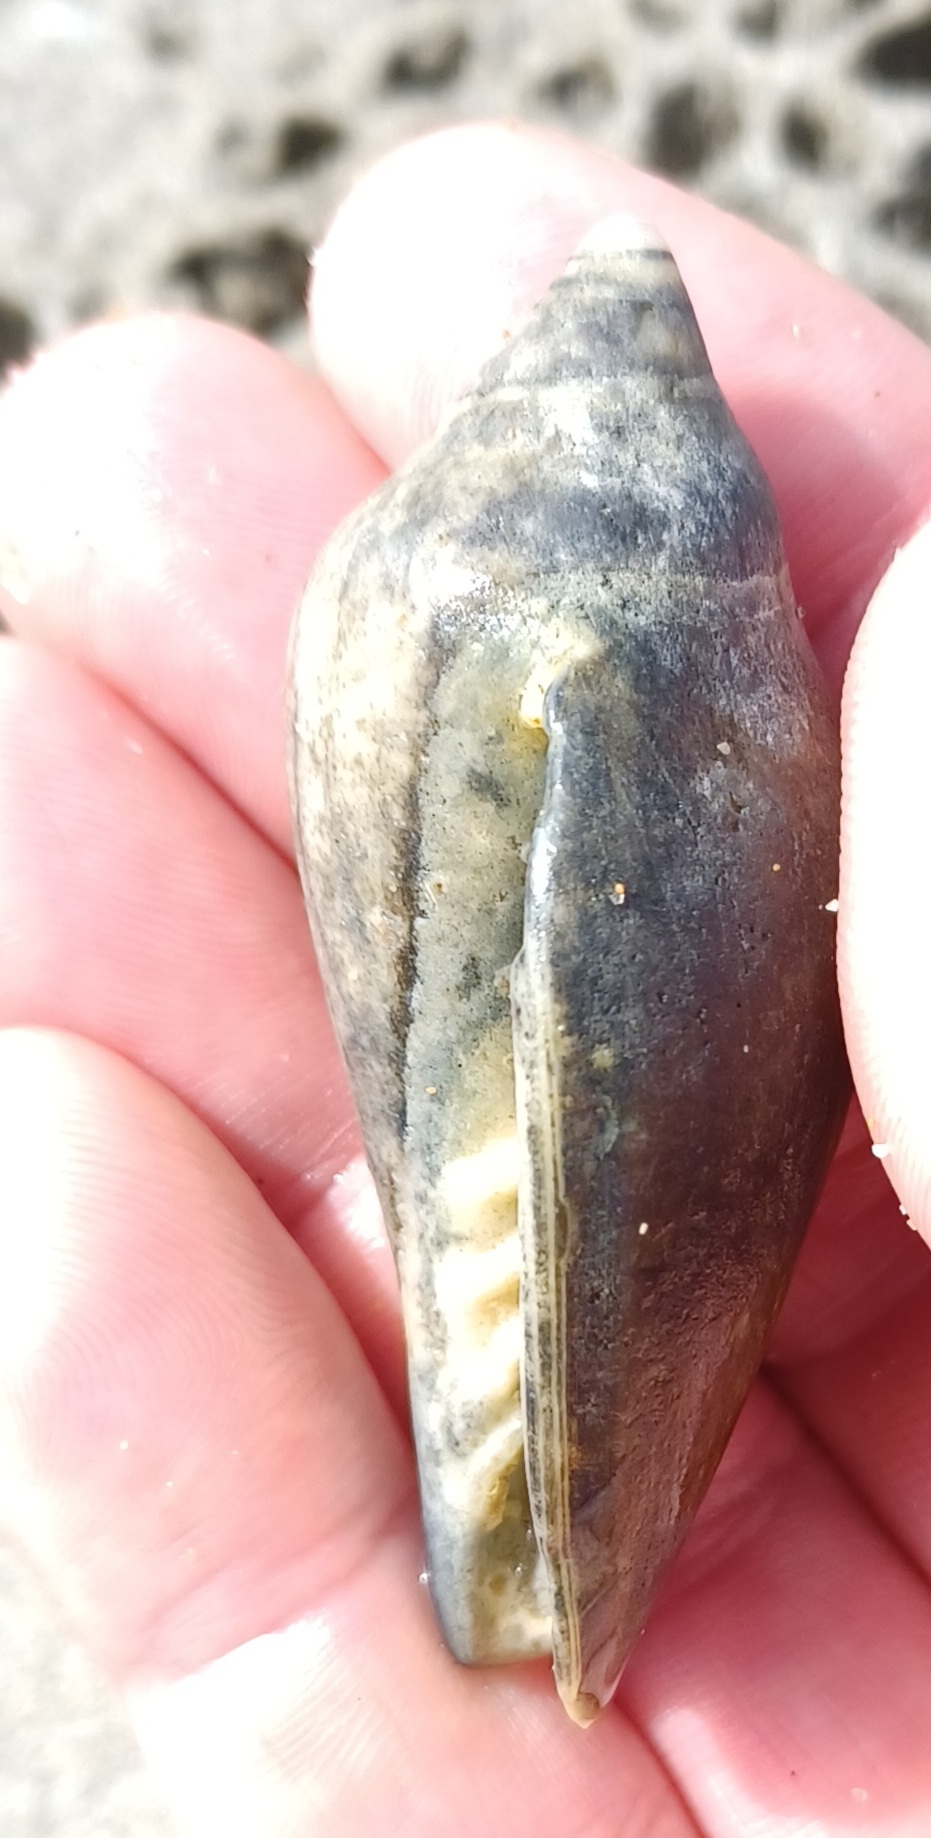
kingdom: Animalia
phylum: Mollusca
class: Gastropoda
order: Neogastropoda
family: Volutidae
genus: Amoria
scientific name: Amoria undulata
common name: Waved volute
